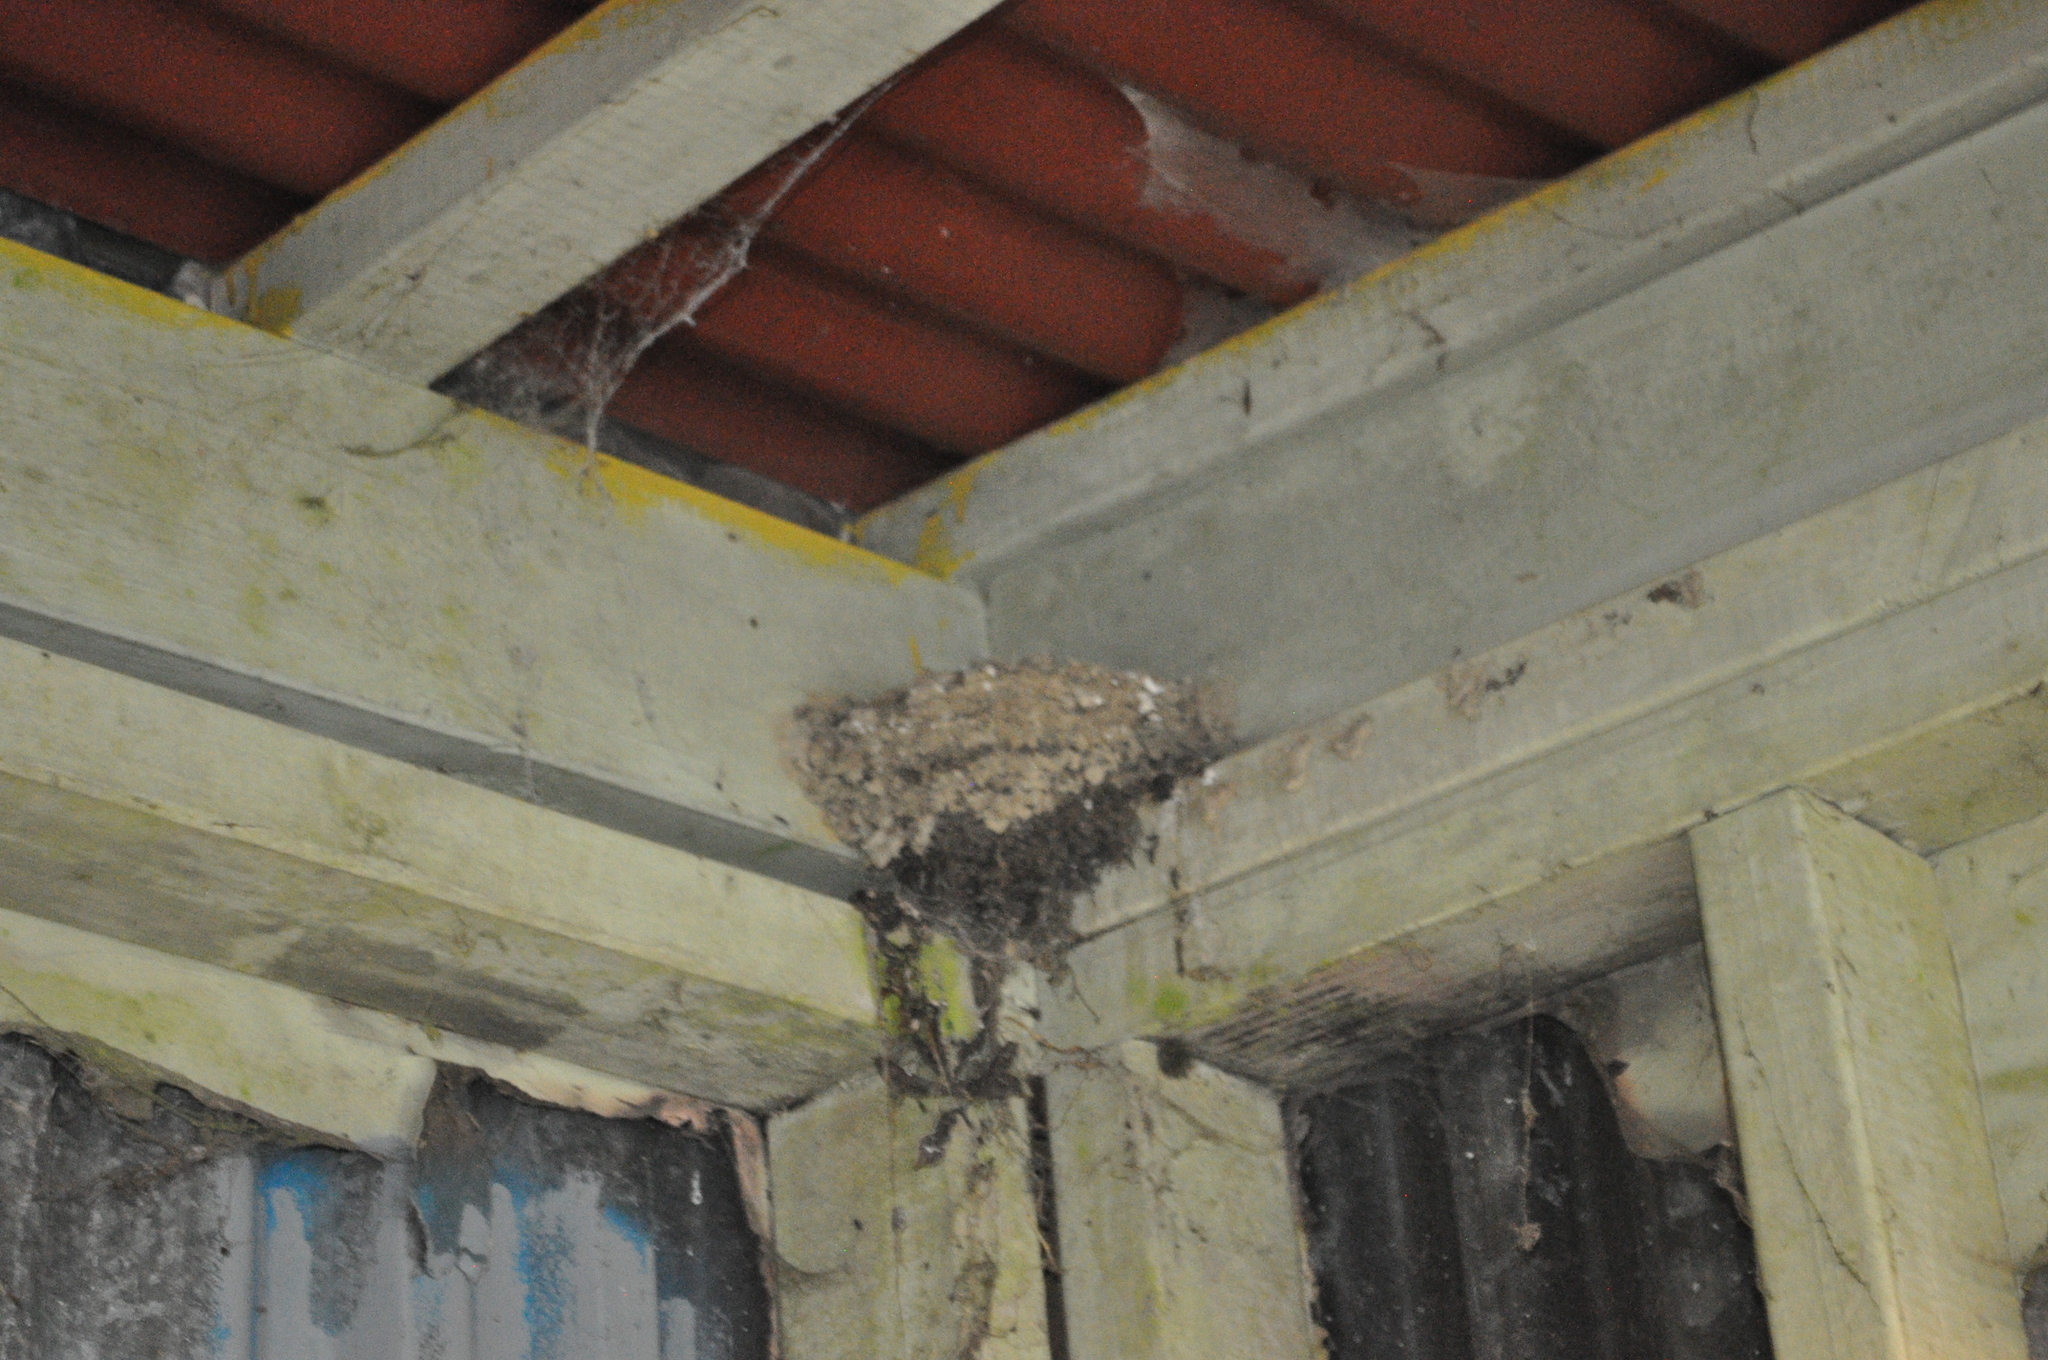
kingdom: Animalia
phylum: Chordata
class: Aves
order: Passeriformes
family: Hirundinidae
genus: Hirundo
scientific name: Hirundo neoxena
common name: Welcome swallow
